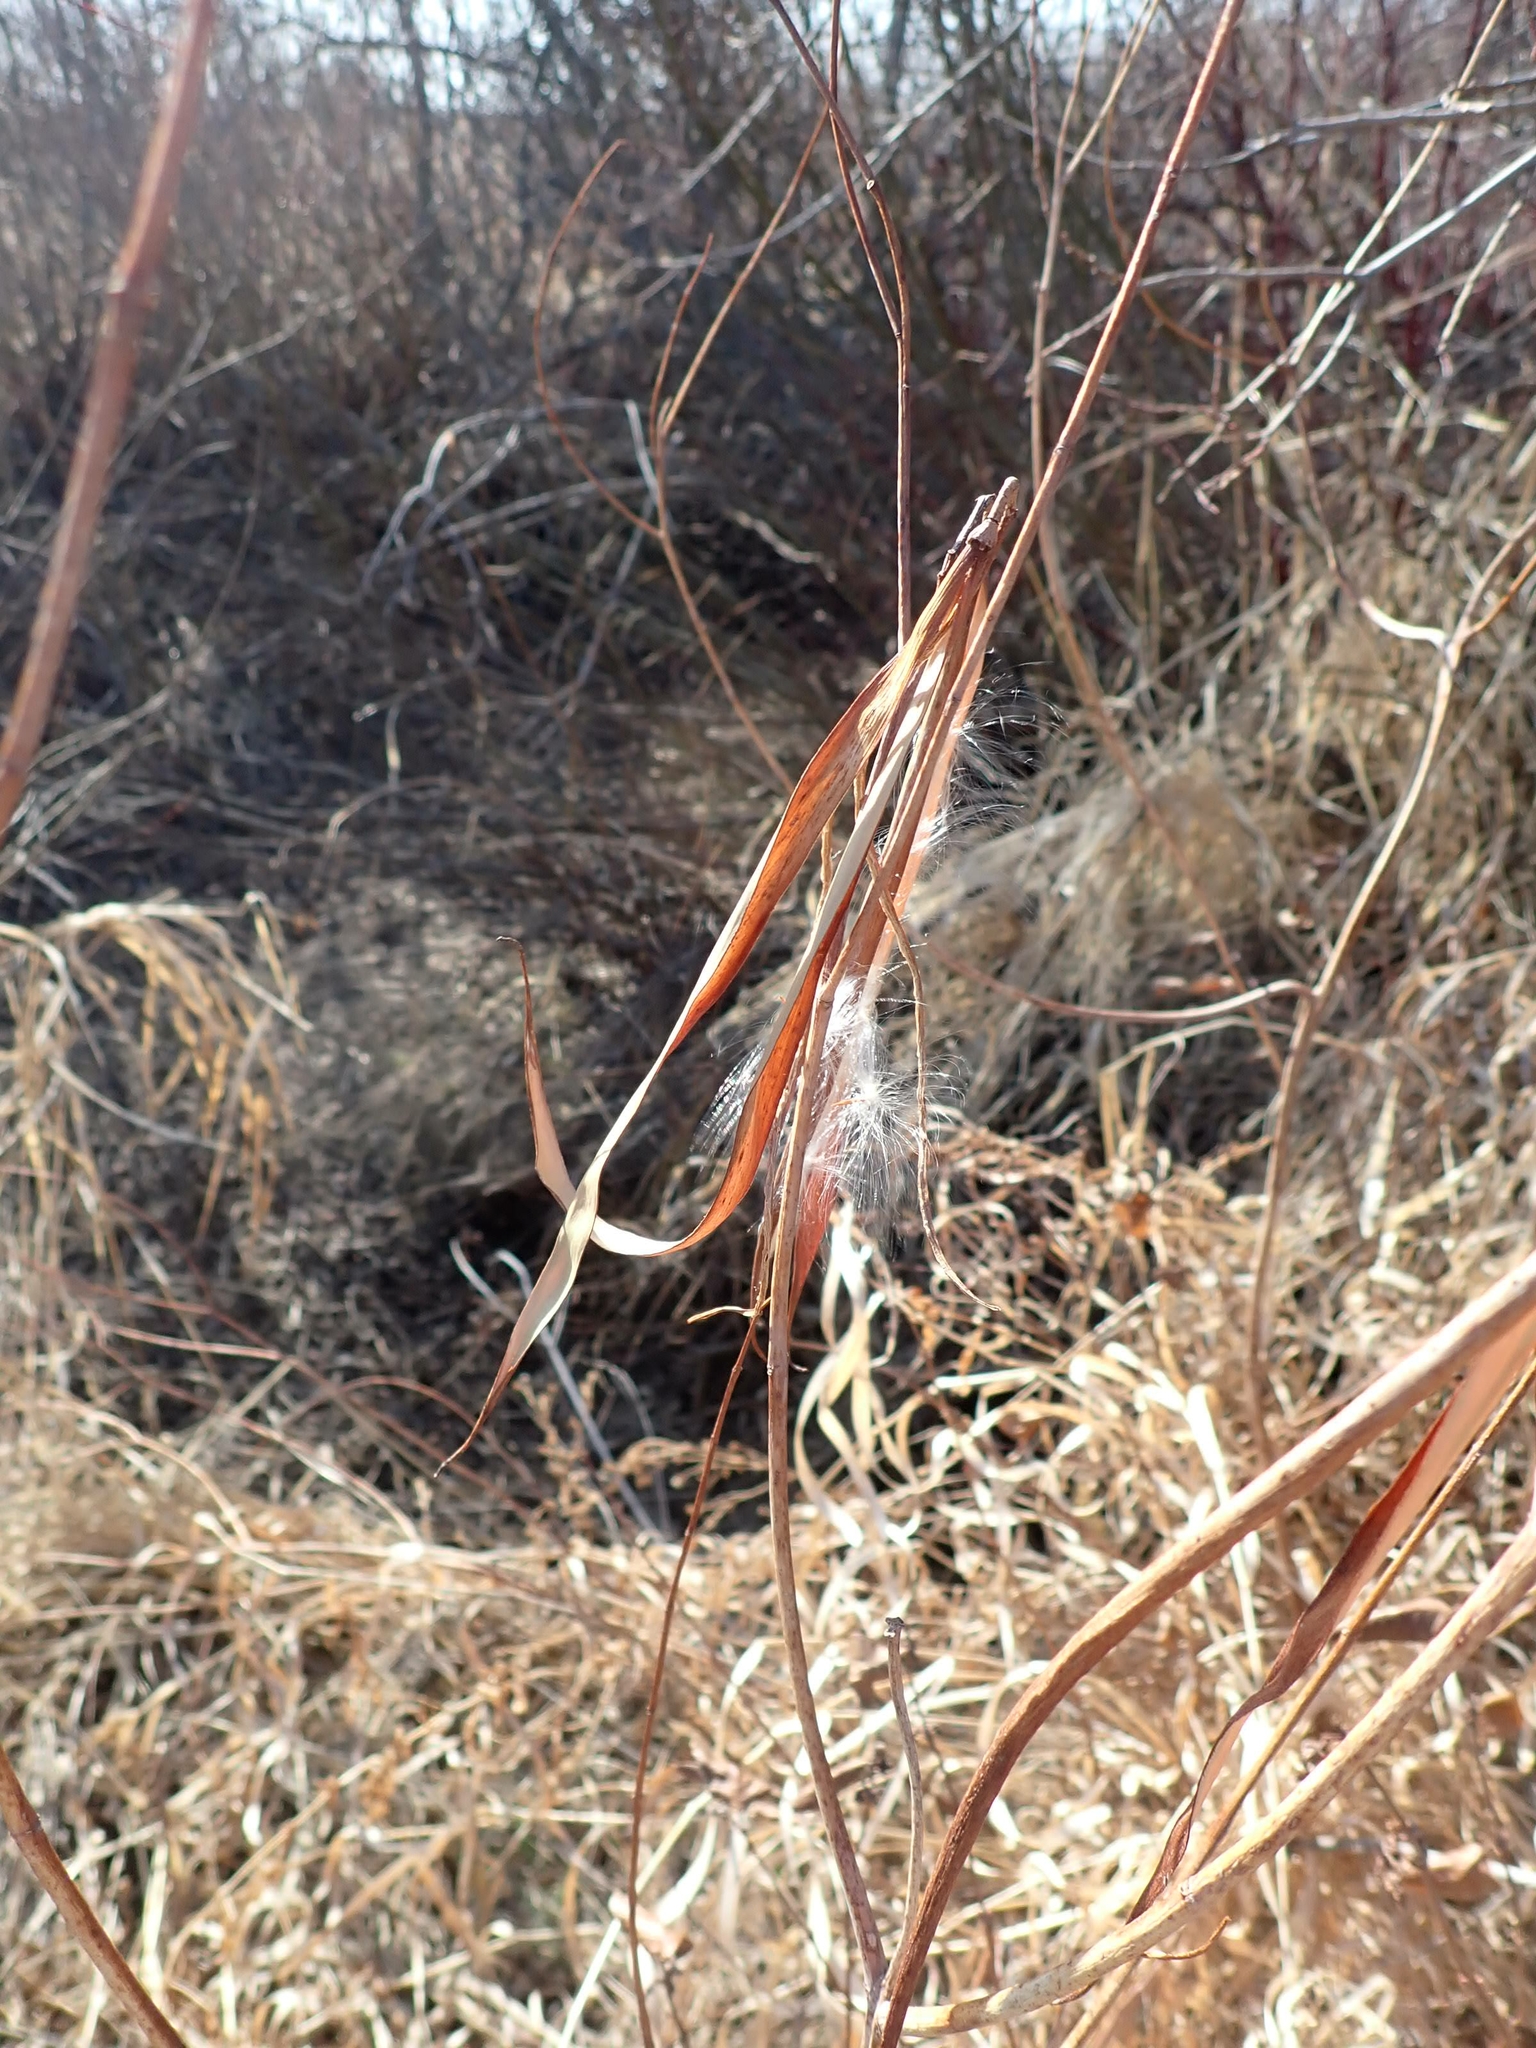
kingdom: Plantae
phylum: Tracheophyta
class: Magnoliopsida
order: Gentianales
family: Apocynaceae
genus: Apocynum
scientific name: Apocynum cannabinum
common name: Hemp dogbane
